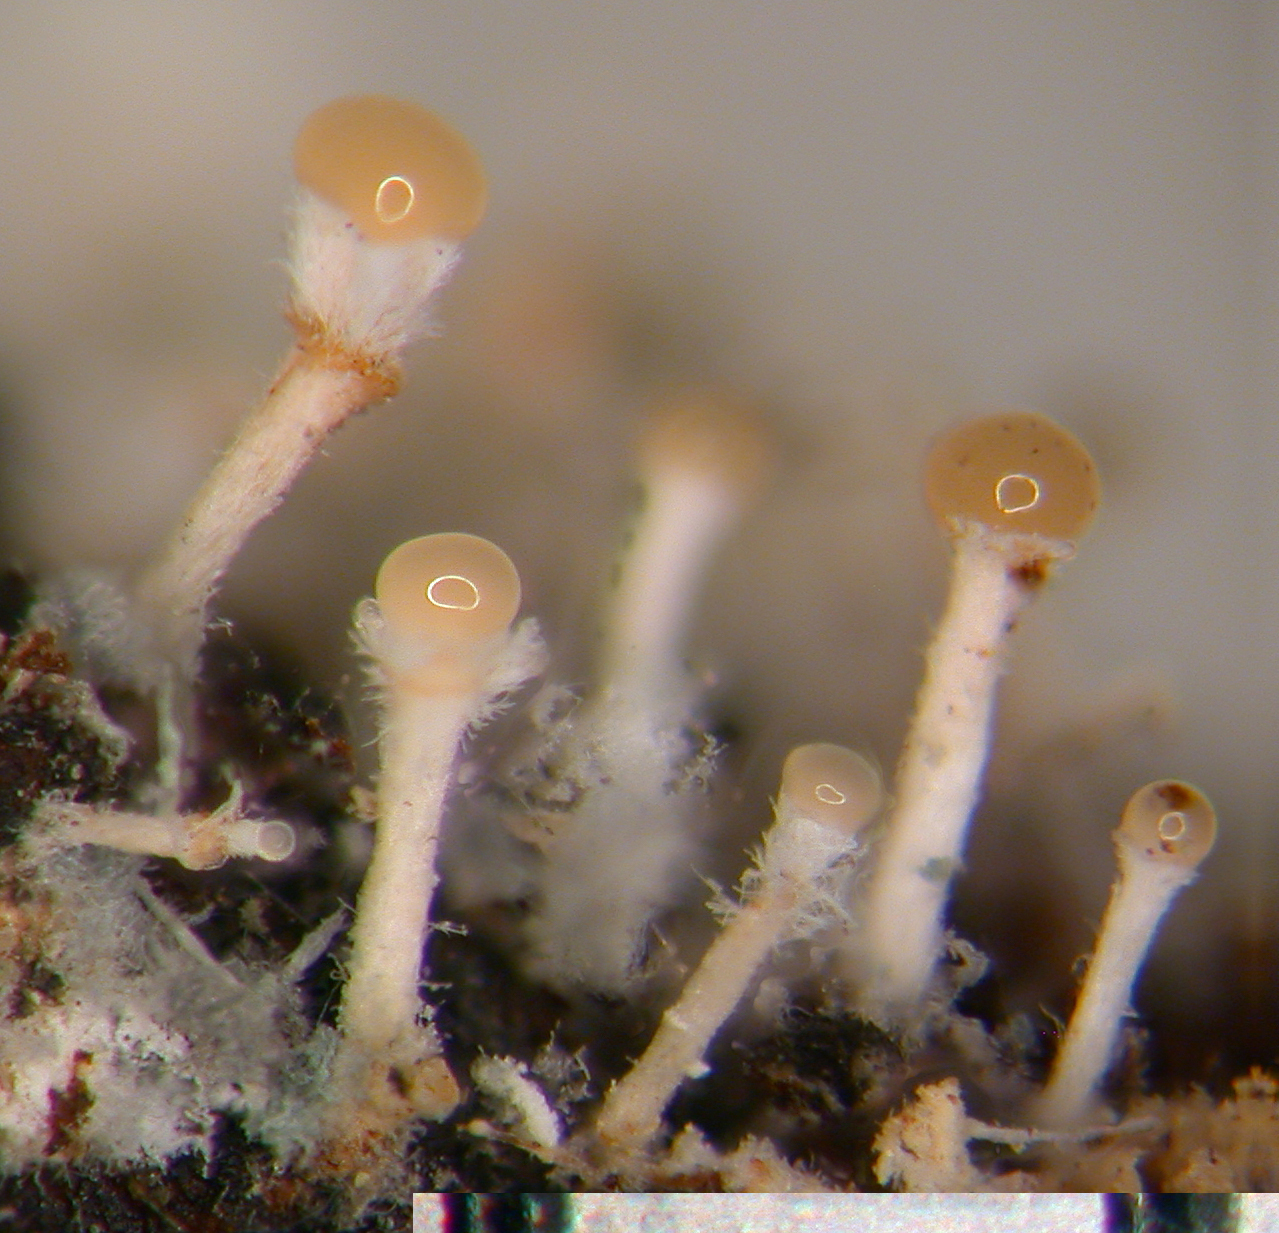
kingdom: Fungi
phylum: Ascomycota
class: Sordariomycetes
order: Hypocreales
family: Myrotheciomycetaceae
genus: Emericellopsis
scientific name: Emericellopsis
